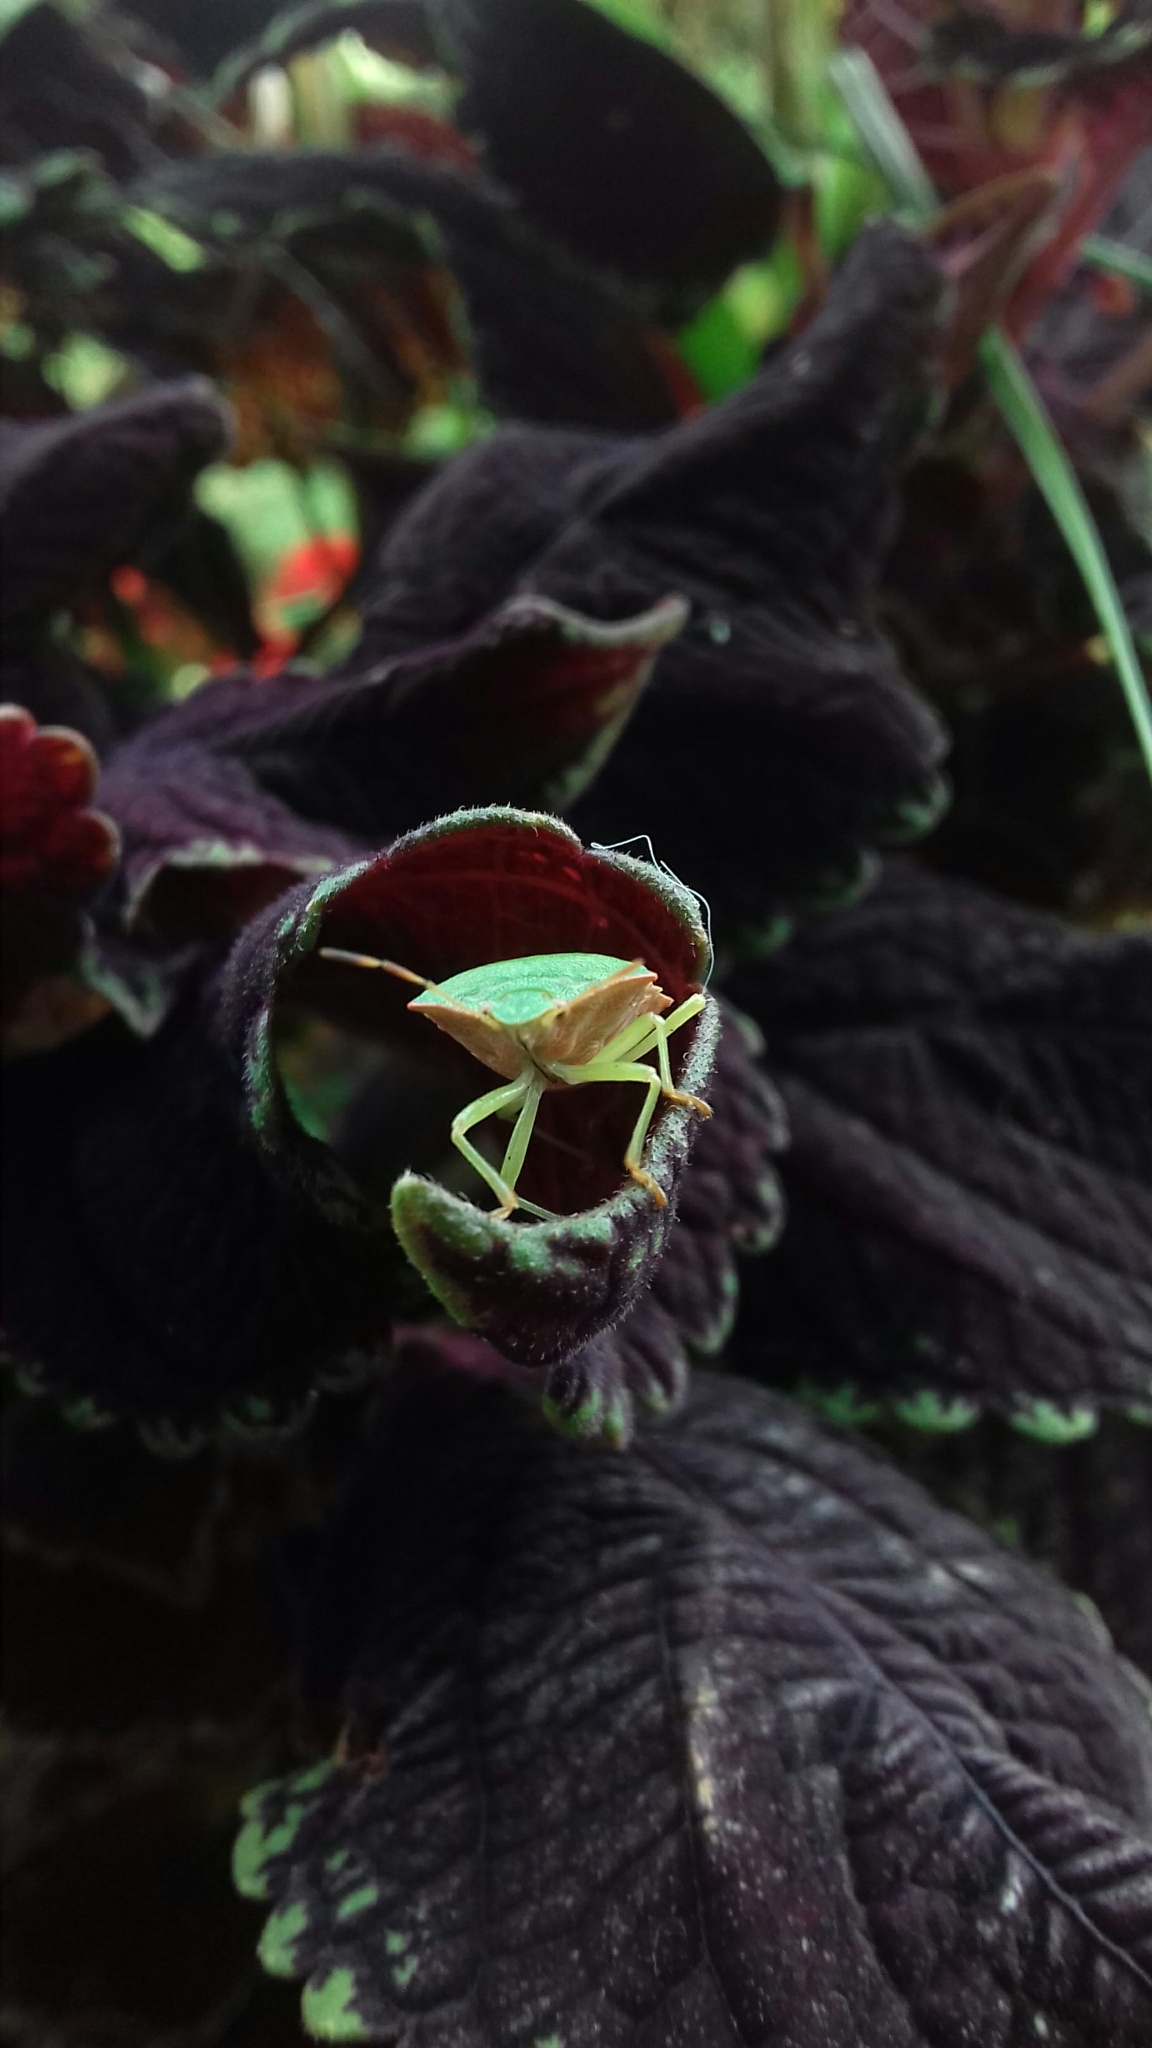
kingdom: Animalia
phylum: Arthropoda
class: Insecta
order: Hemiptera
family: Pentatomidae
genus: Palomena
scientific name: Palomena prasina
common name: Green shieldbug
